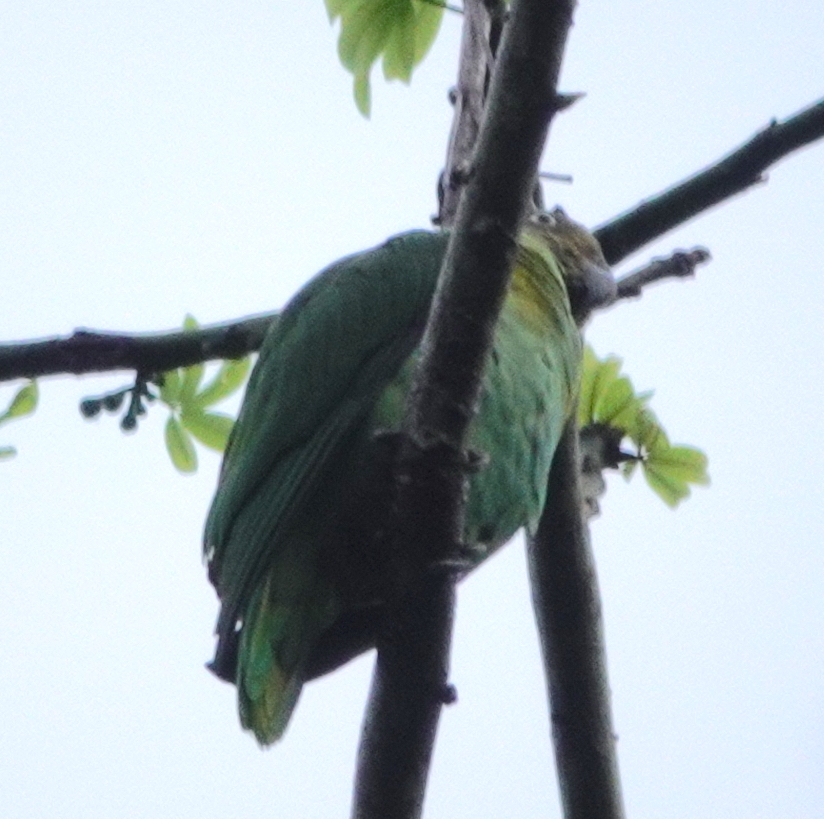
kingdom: Animalia
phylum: Chordata
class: Aves
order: Psittaciformes
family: Psittacidae
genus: Geoffroyus
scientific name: Geoffroyus geoffroyi
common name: Red-cheeked parrot
